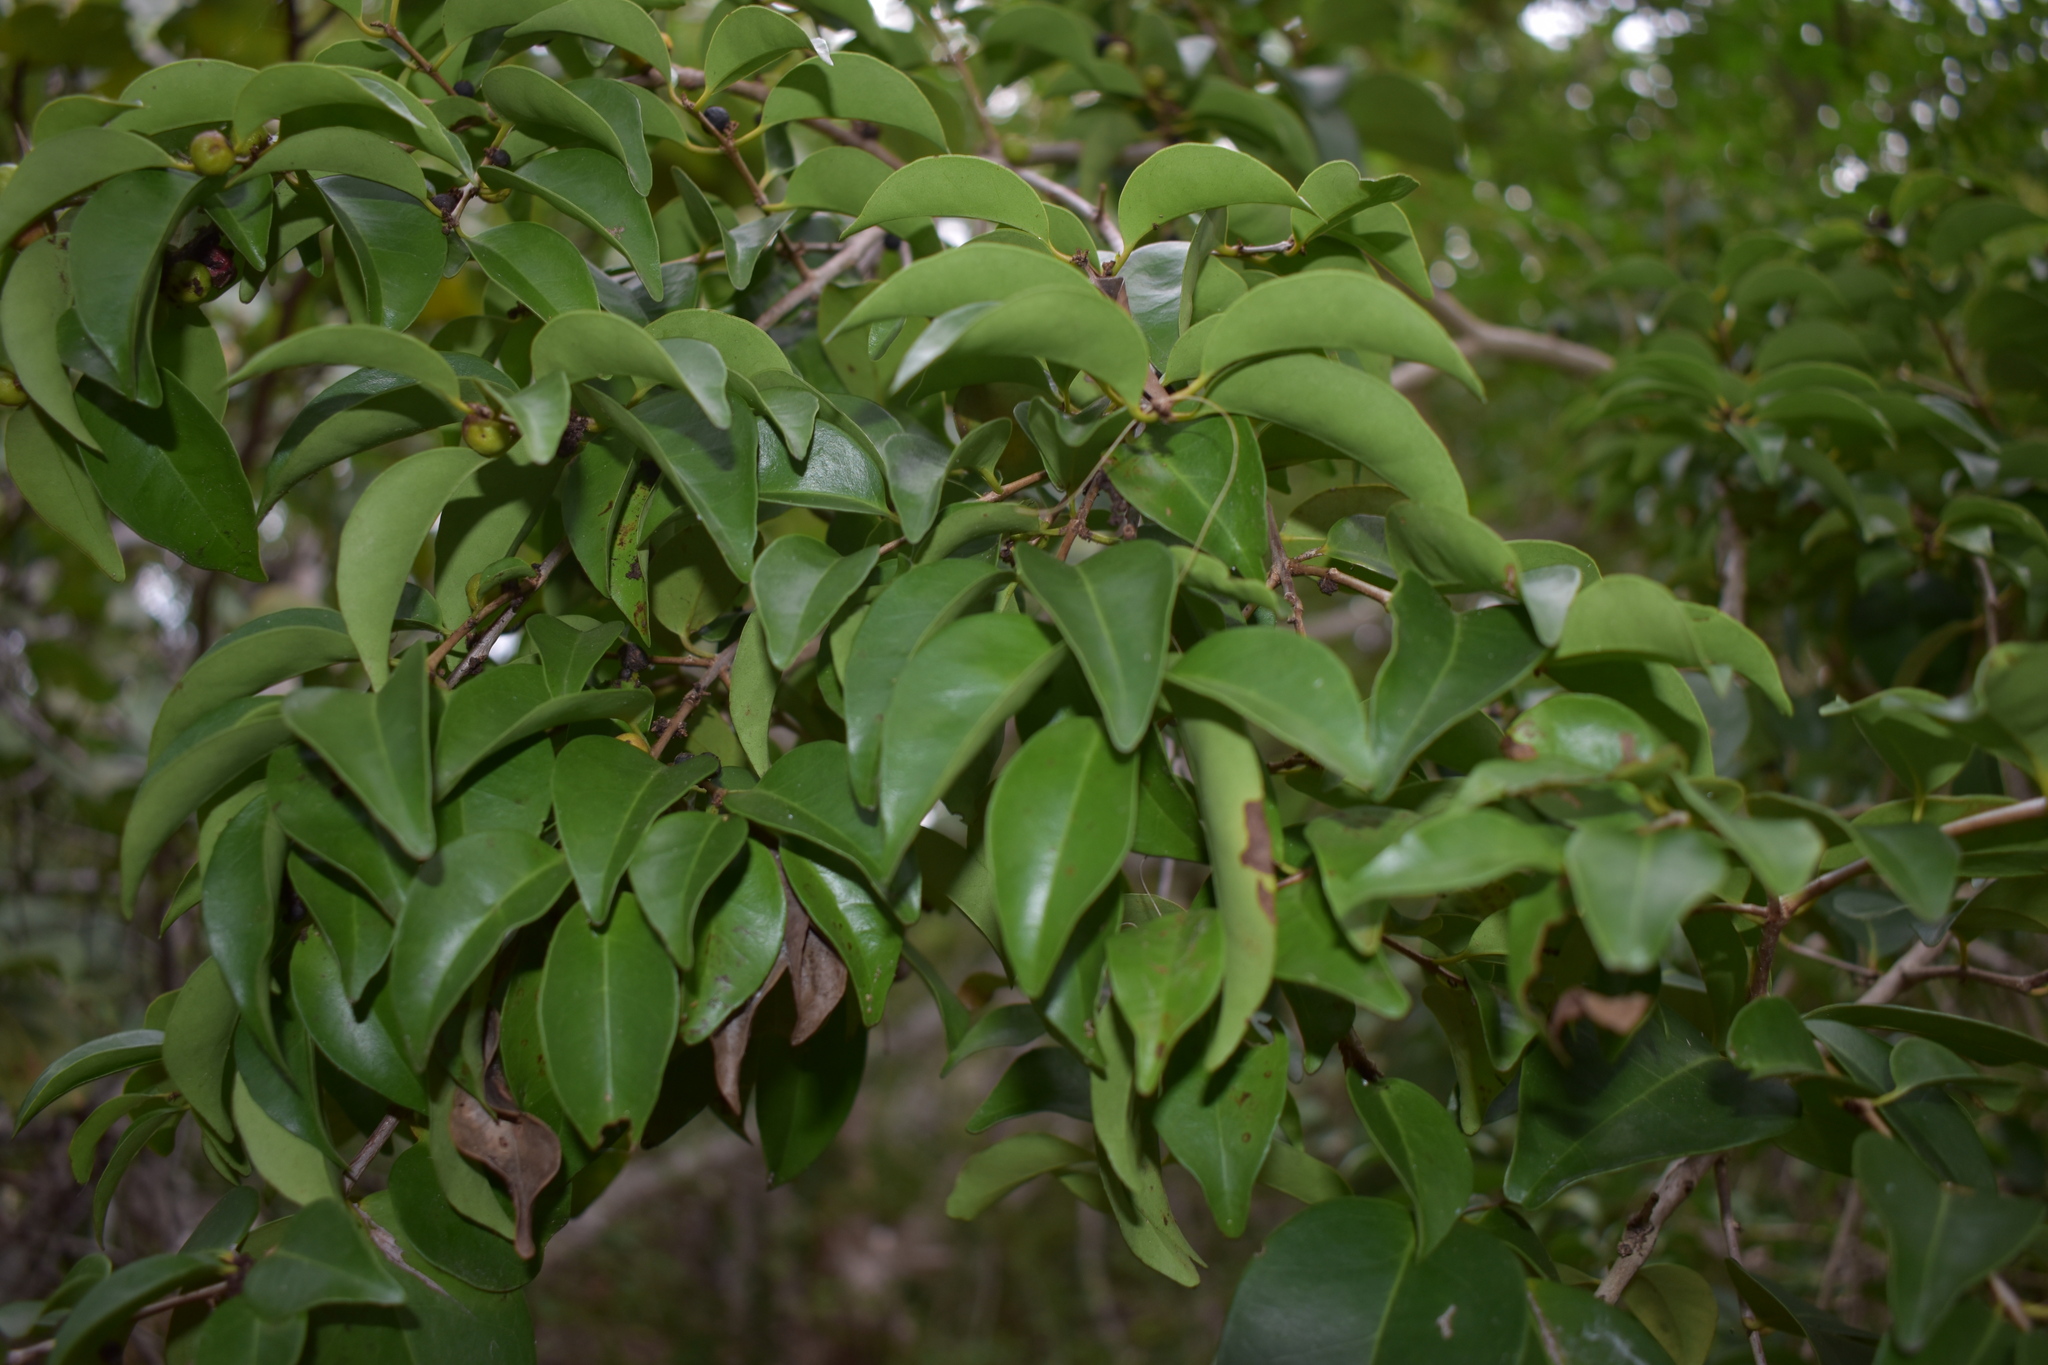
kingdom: Plantae
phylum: Tracheophyta
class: Magnoliopsida
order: Myrtales
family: Myrtaceae
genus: Eugenia
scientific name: Eugenia axillaris
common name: Choaky berry
